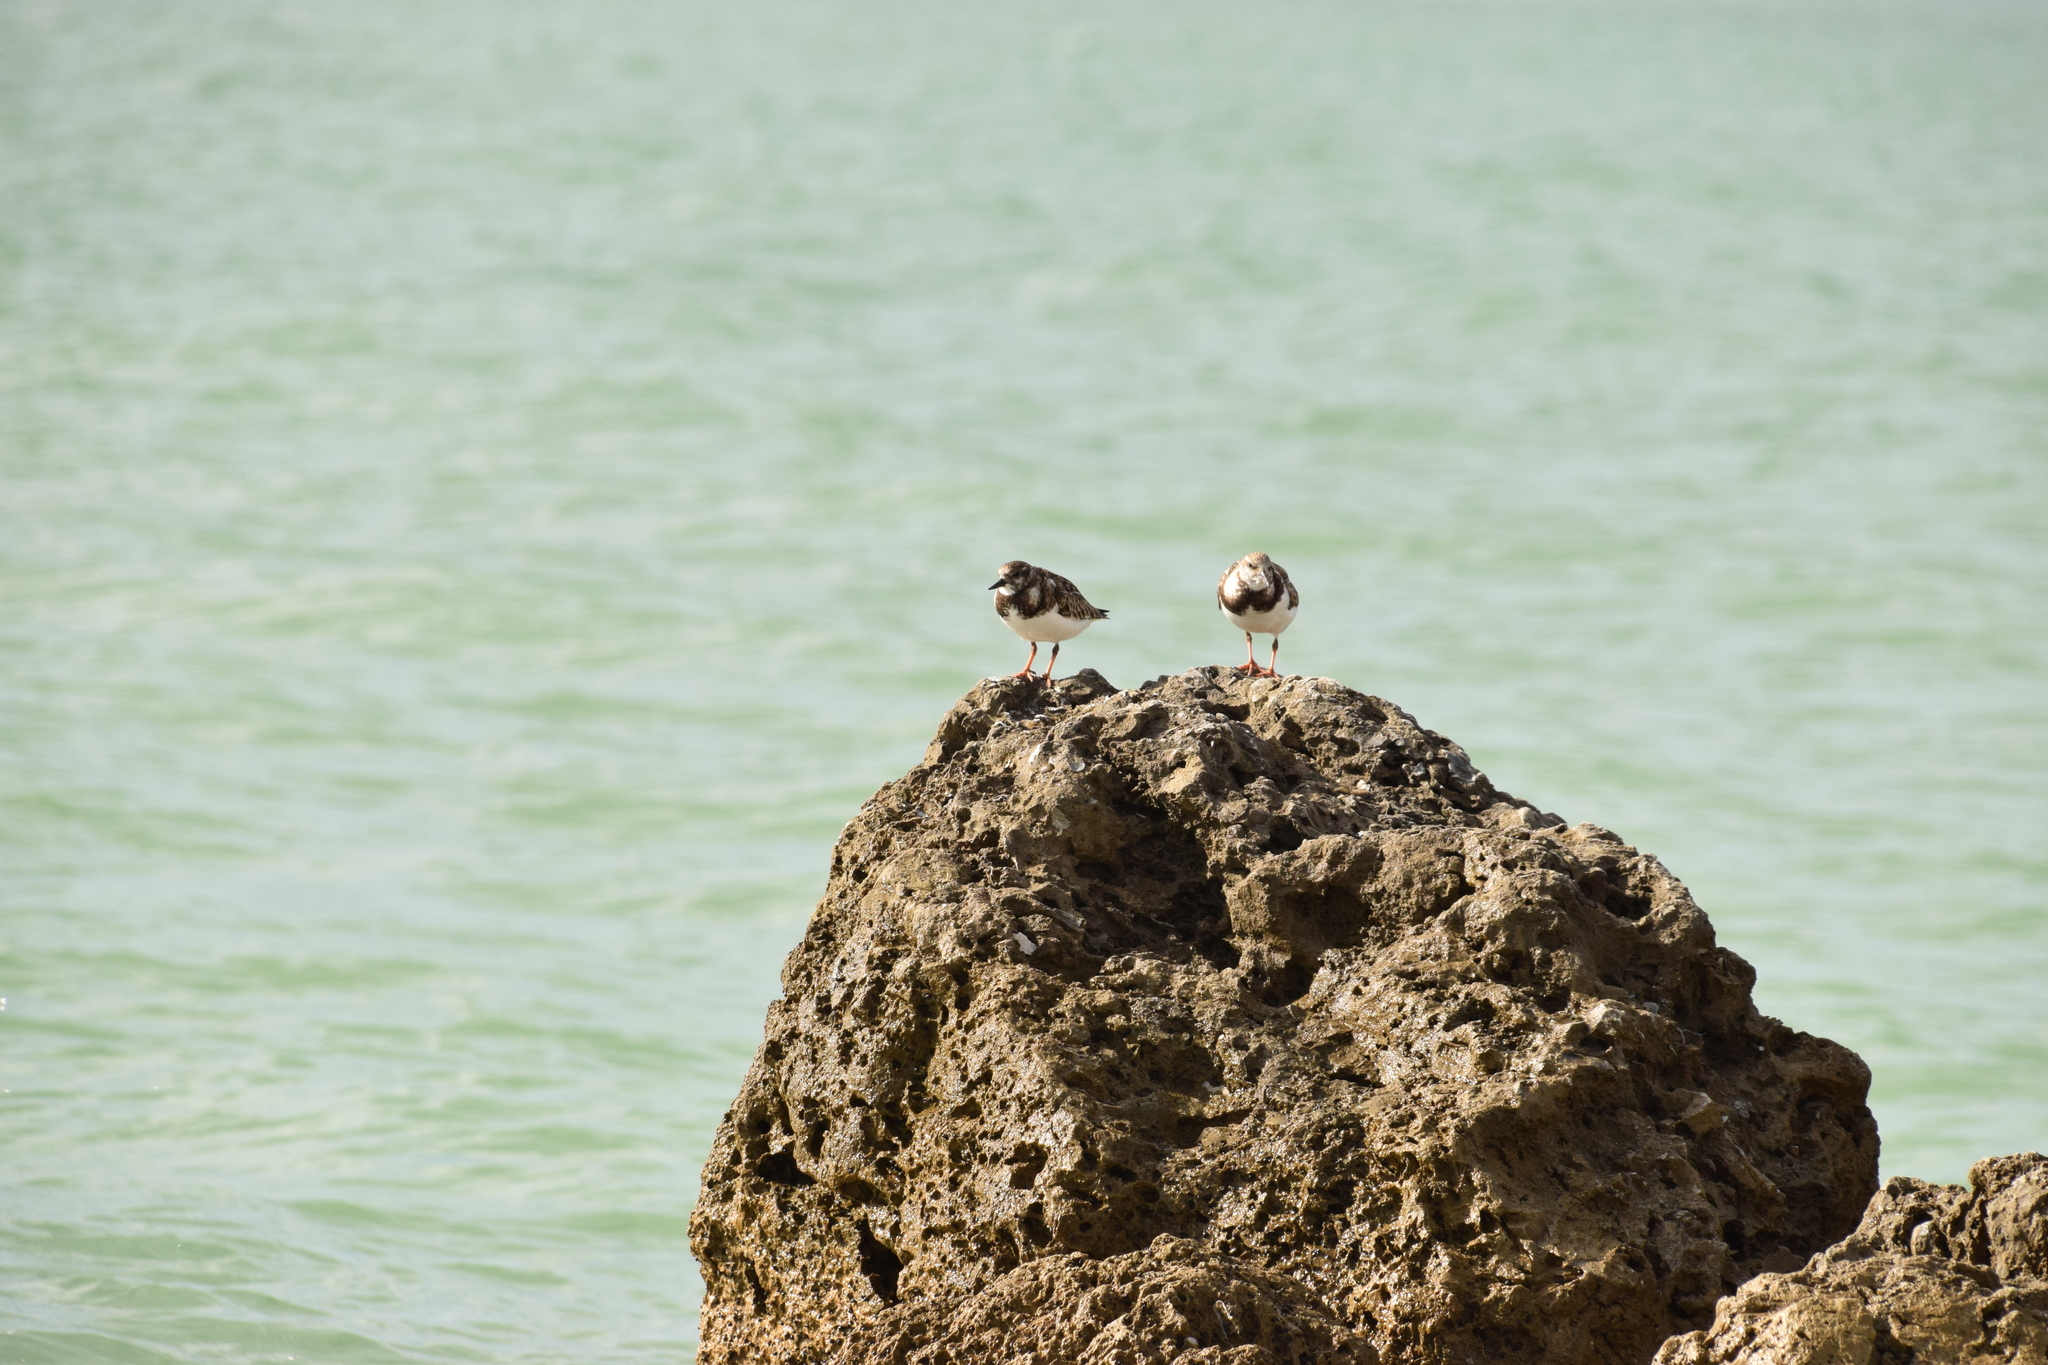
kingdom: Animalia
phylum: Chordata
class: Aves
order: Charadriiformes
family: Scolopacidae
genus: Arenaria
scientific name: Arenaria interpres
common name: Ruddy turnstone
